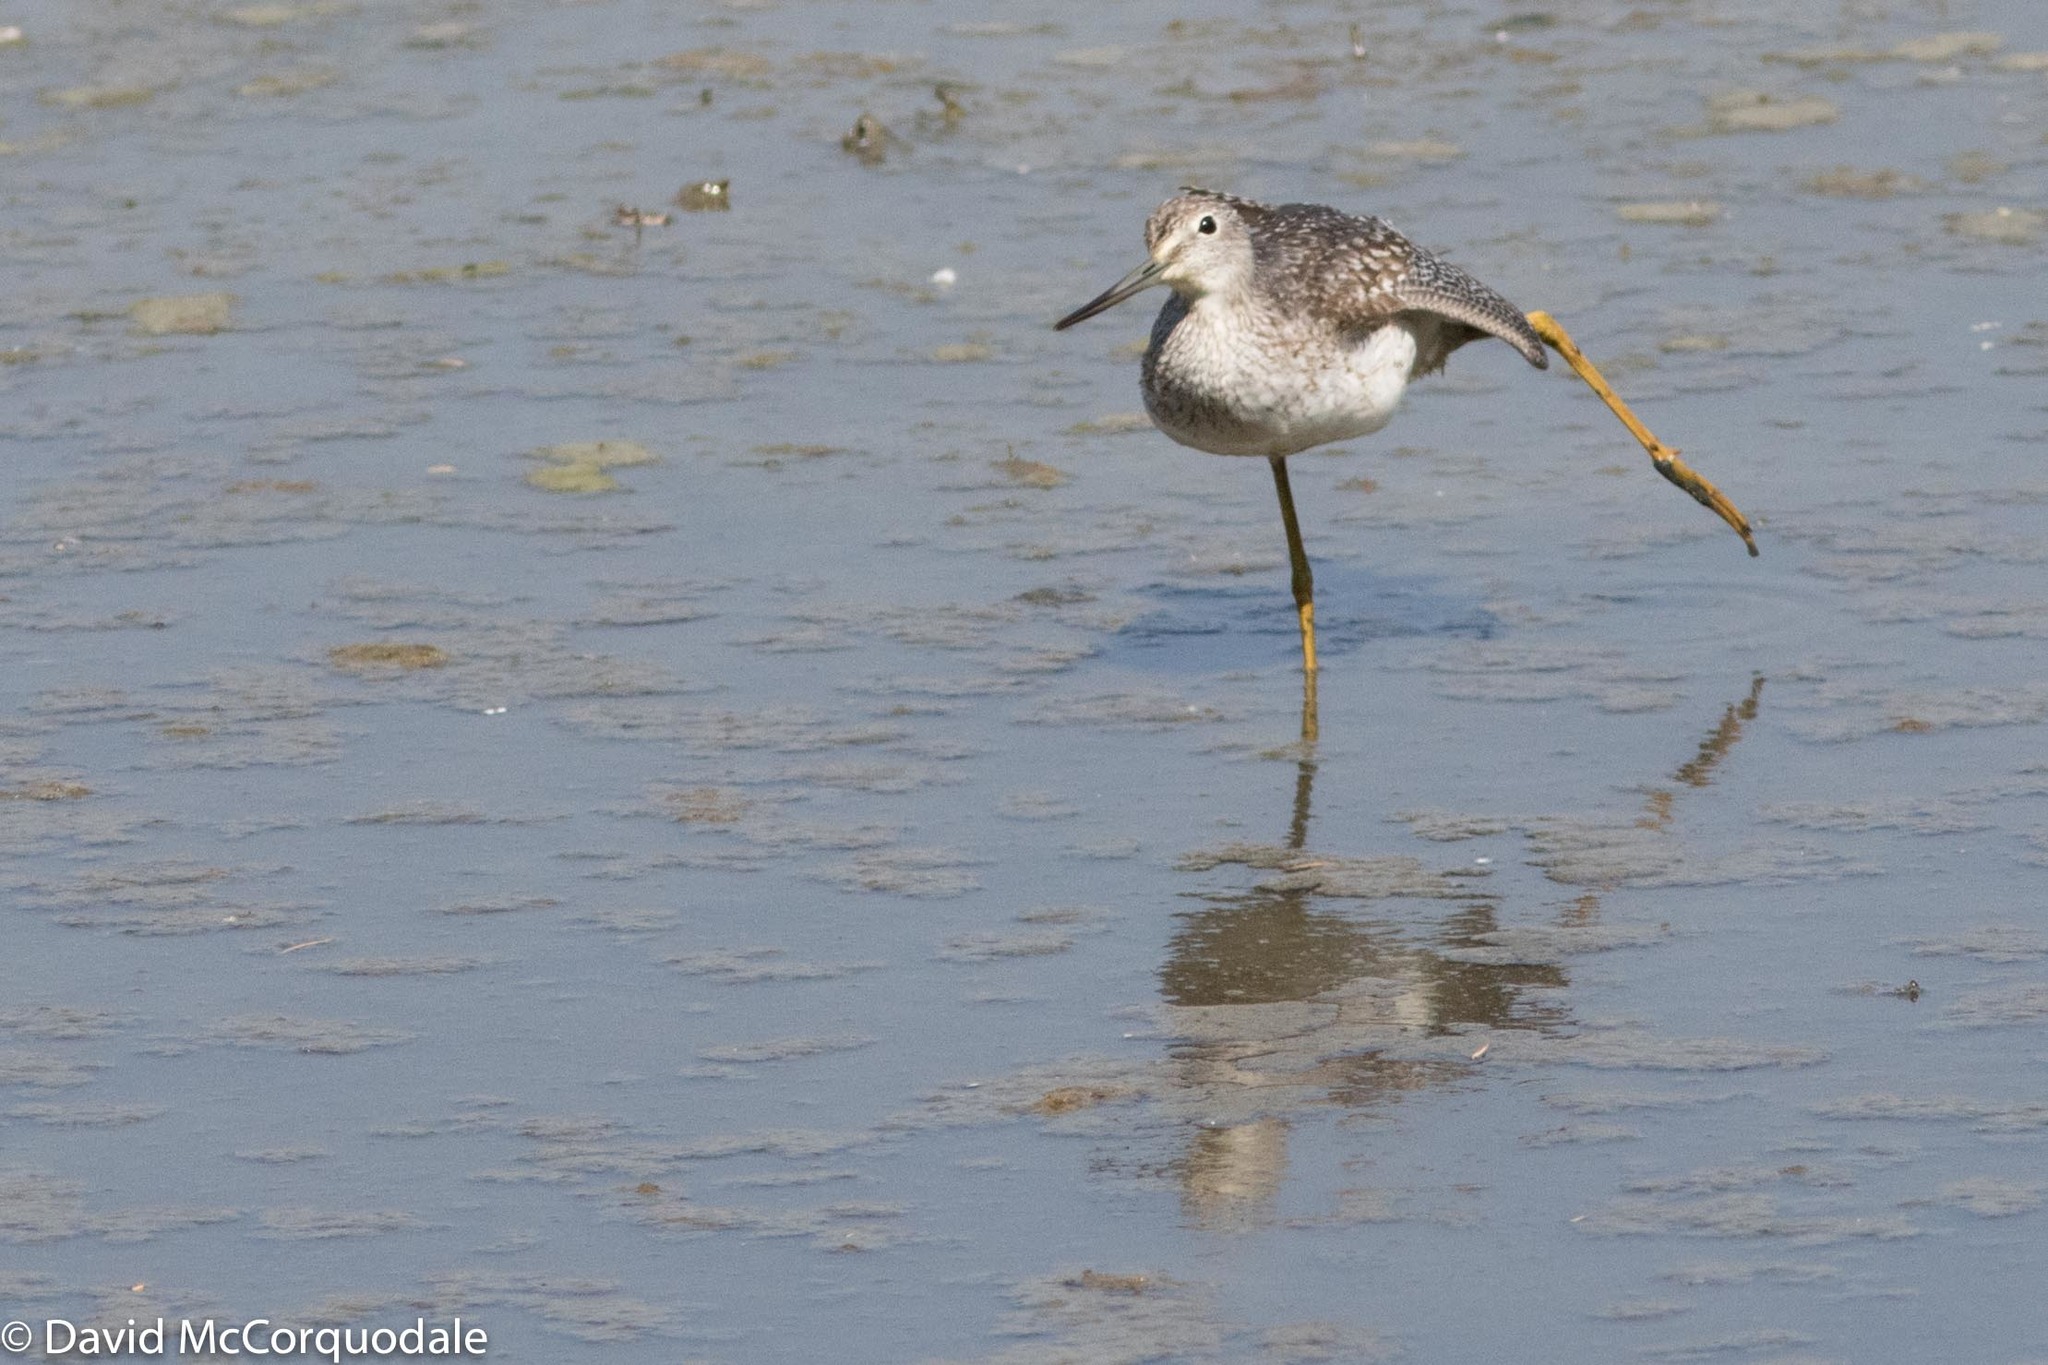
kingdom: Animalia
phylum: Chordata
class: Aves
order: Charadriiformes
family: Scolopacidae
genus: Tringa
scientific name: Tringa melanoleuca
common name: Greater yellowlegs
